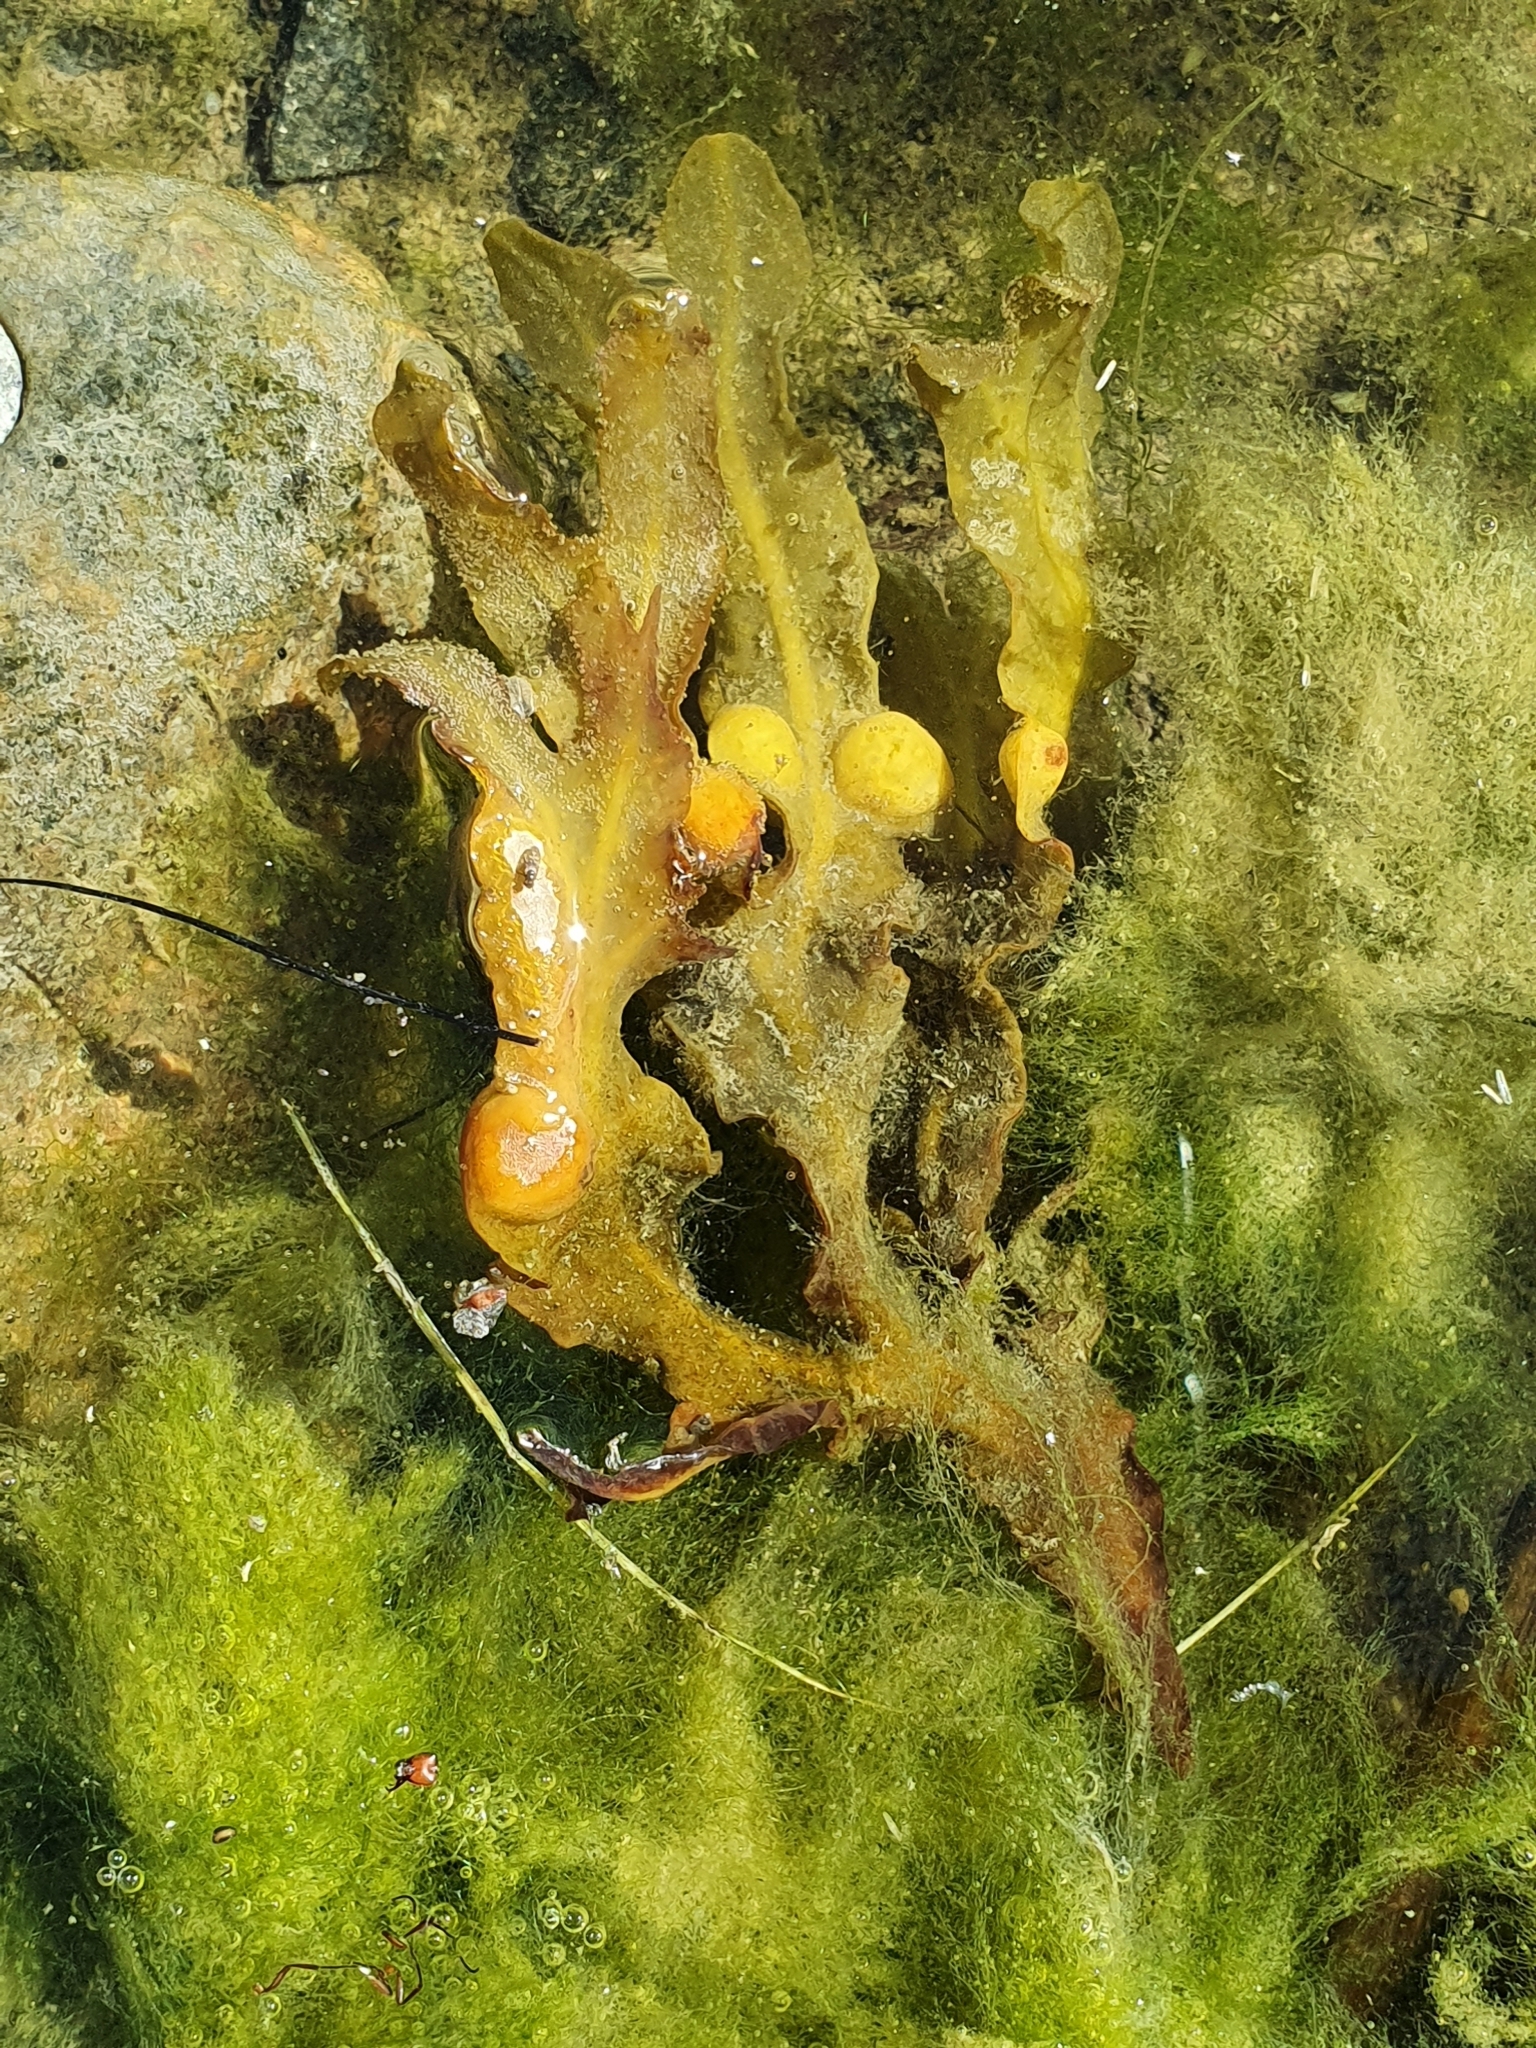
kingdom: Chromista
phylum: Ochrophyta
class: Phaeophyceae
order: Fucales
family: Fucaceae
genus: Fucus
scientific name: Fucus vesiculosus
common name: Bladder wrack
